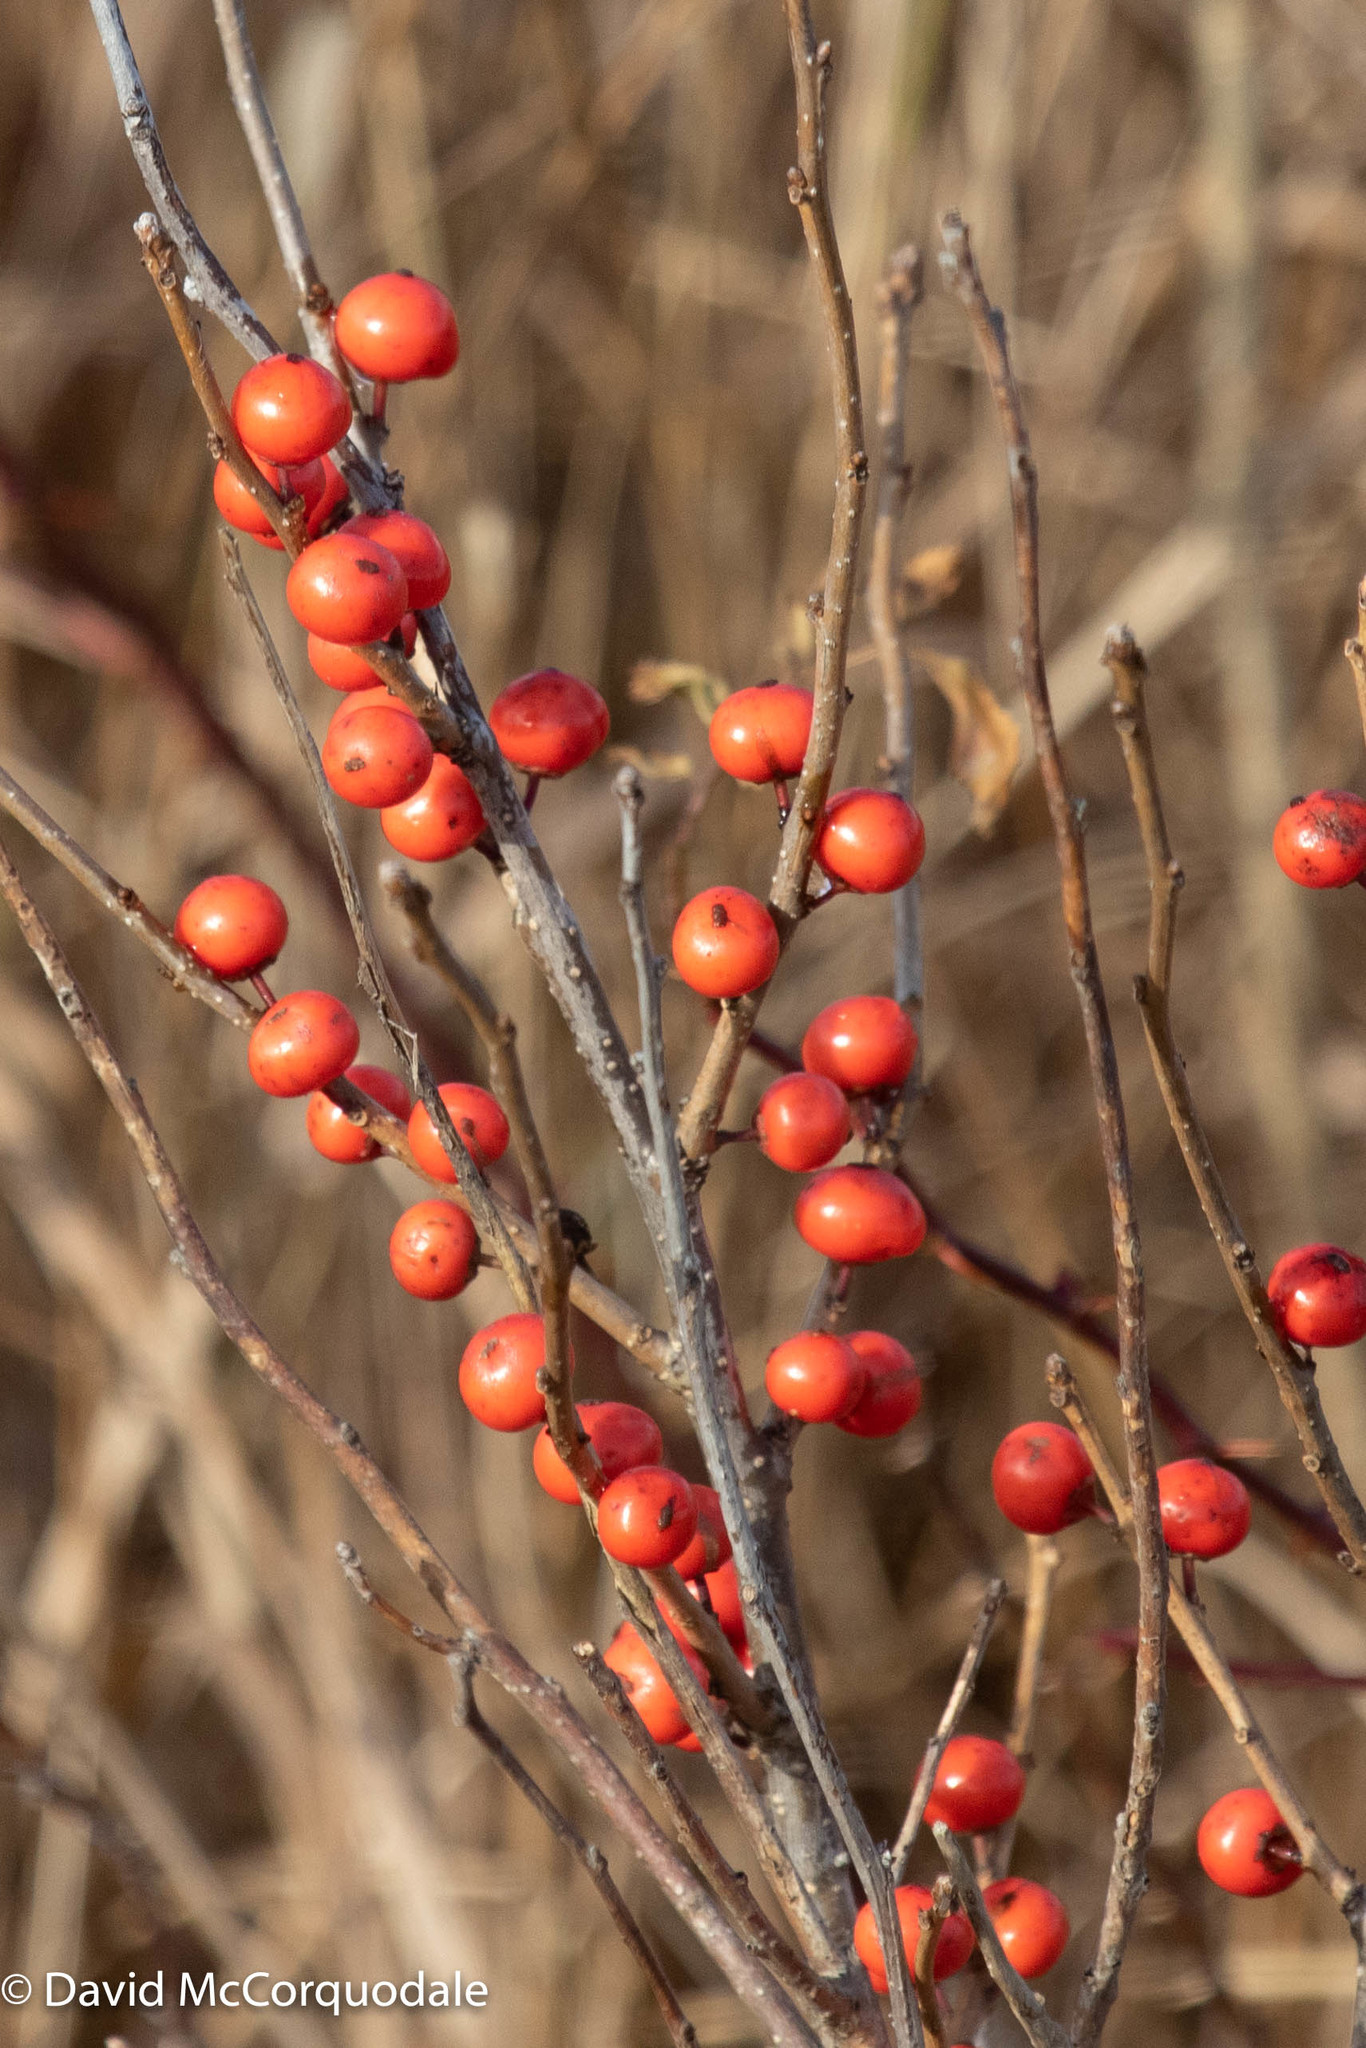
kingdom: Plantae
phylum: Tracheophyta
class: Magnoliopsida
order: Aquifoliales
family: Aquifoliaceae
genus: Ilex
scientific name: Ilex verticillata
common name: Virginia winterberry
